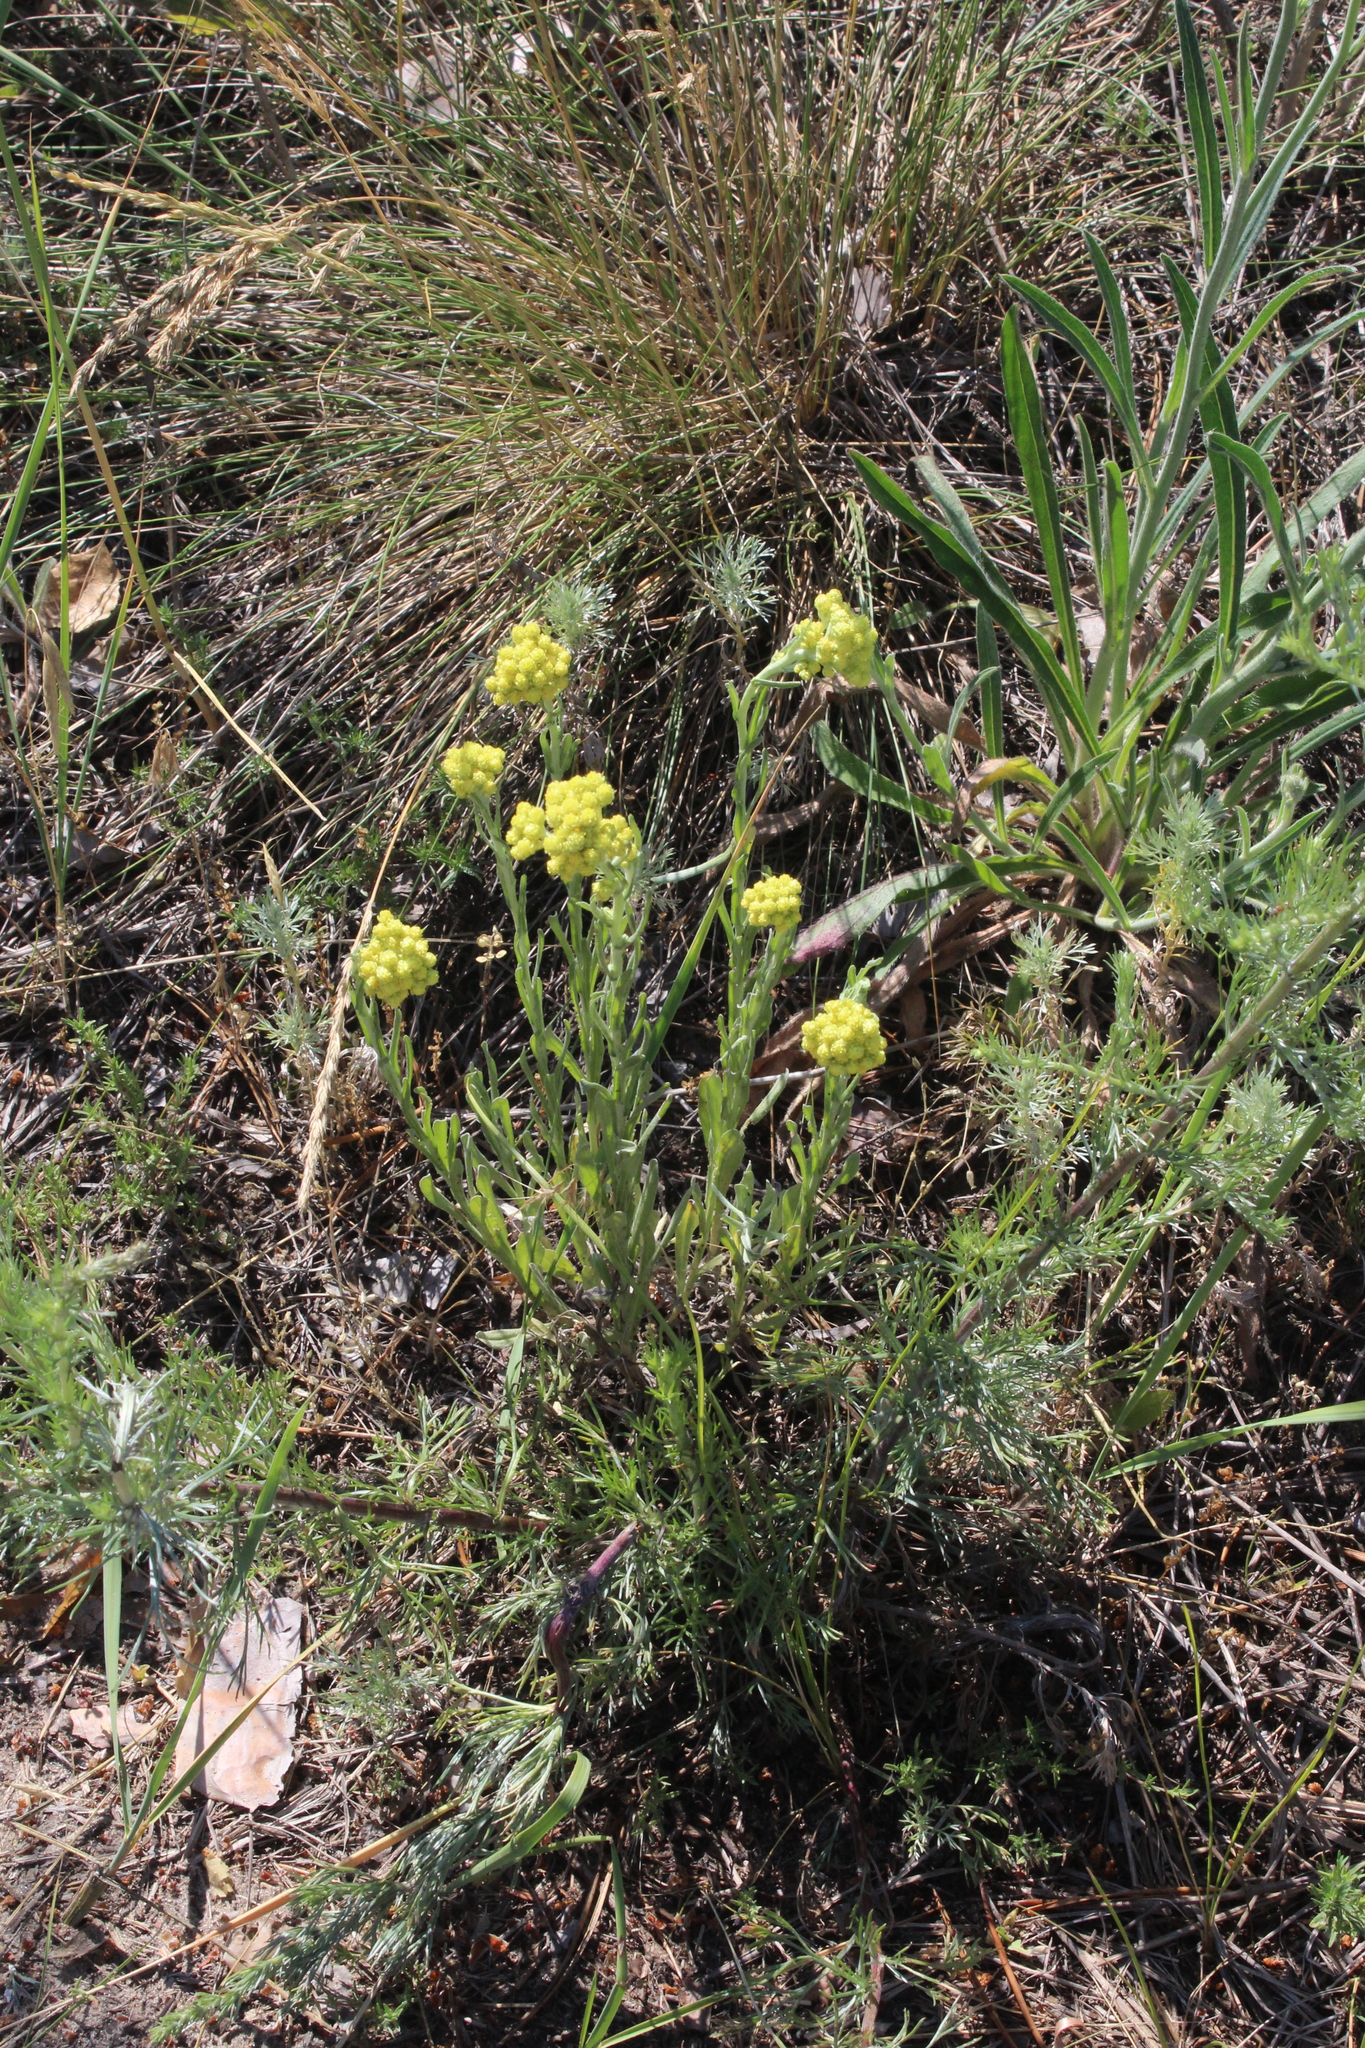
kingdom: Plantae
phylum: Tracheophyta
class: Magnoliopsida
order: Asterales
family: Asteraceae
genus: Helichrysum
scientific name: Helichrysum arenarium
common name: Strawflower
